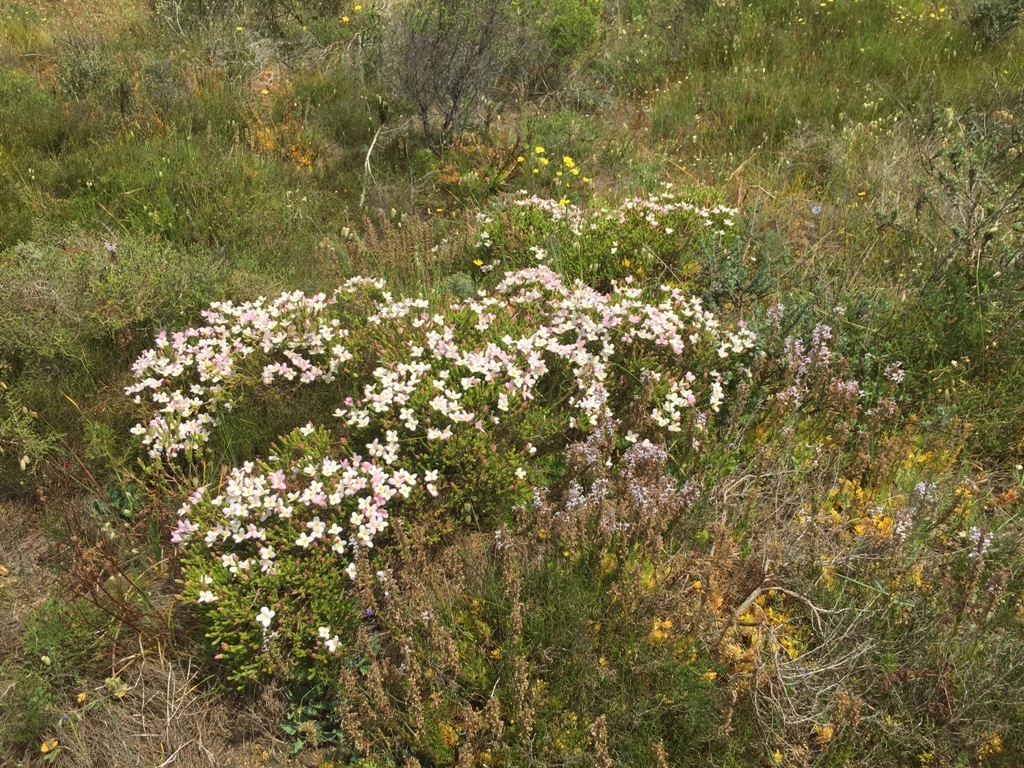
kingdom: Plantae
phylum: Tracheophyta
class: Magnoliopsida
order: Malvales
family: Thymelaeaceae
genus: Lachnaea
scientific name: Lachnaea grandiflora
